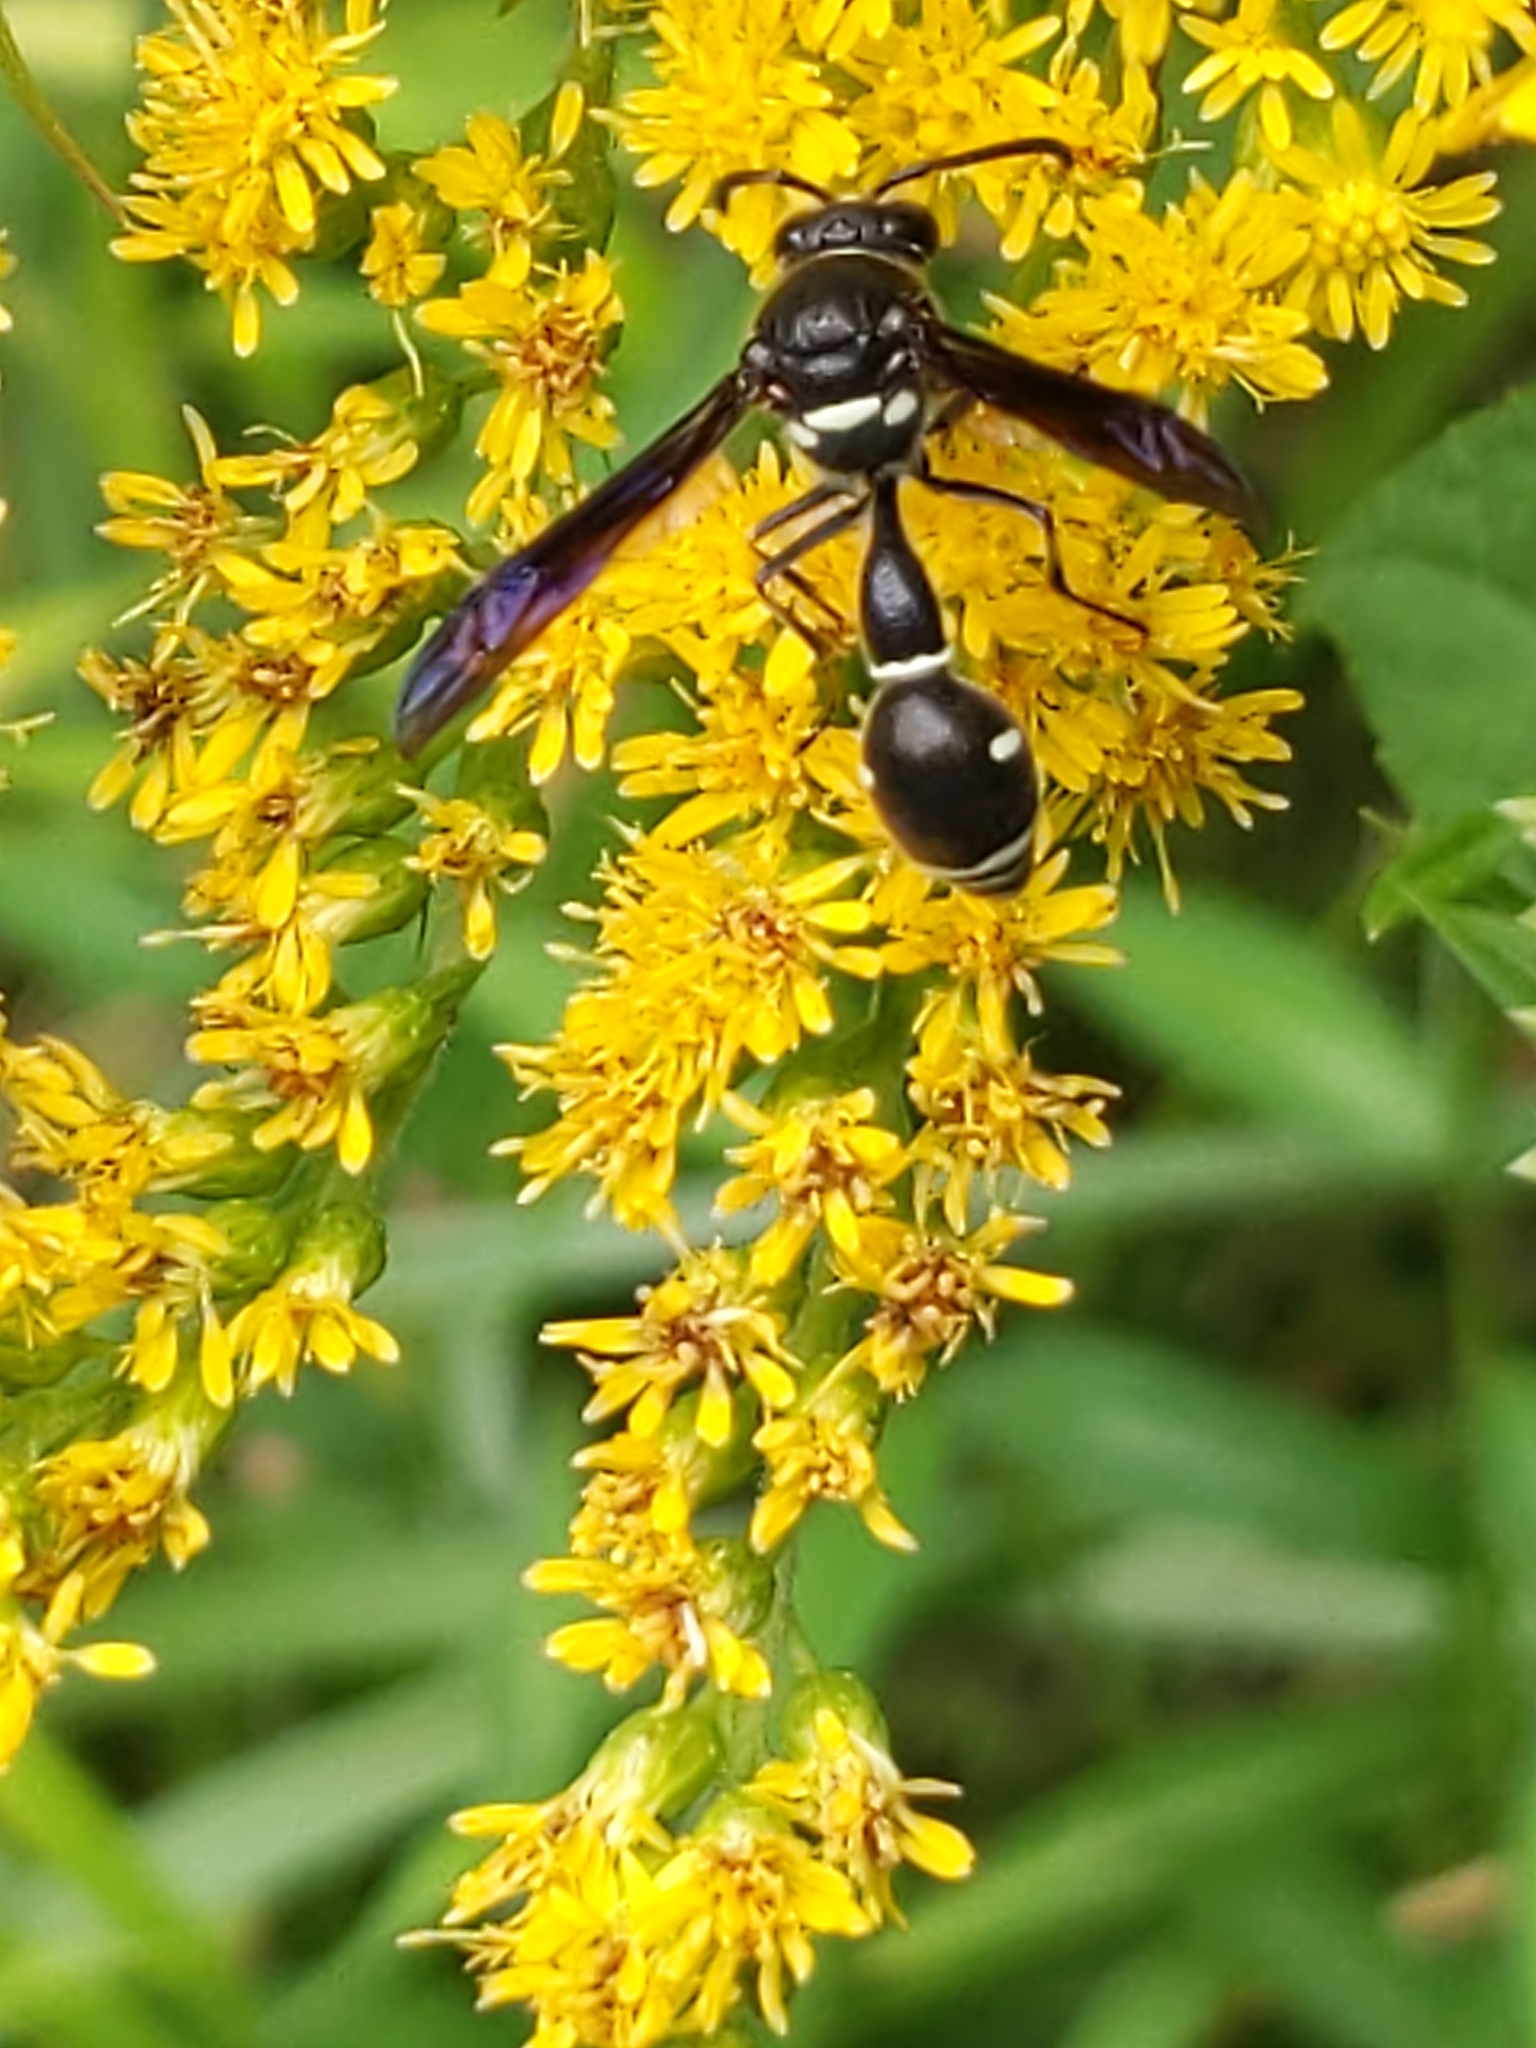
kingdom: Animalia
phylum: Arthropoda
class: Insecta
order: Hymenoptera
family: Vespidae
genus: Eumenes
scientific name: Eumenes fraternus
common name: Fraternal potter wasp
